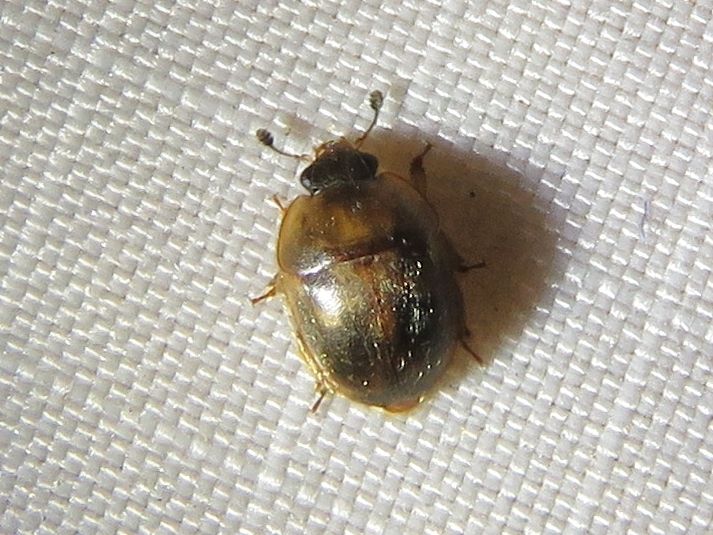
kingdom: Animalia
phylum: Arthropoda
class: Insecta
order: Coleoptera
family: Nitidulidae
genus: Amphicrossus
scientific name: Amphicrossus ciliatus
